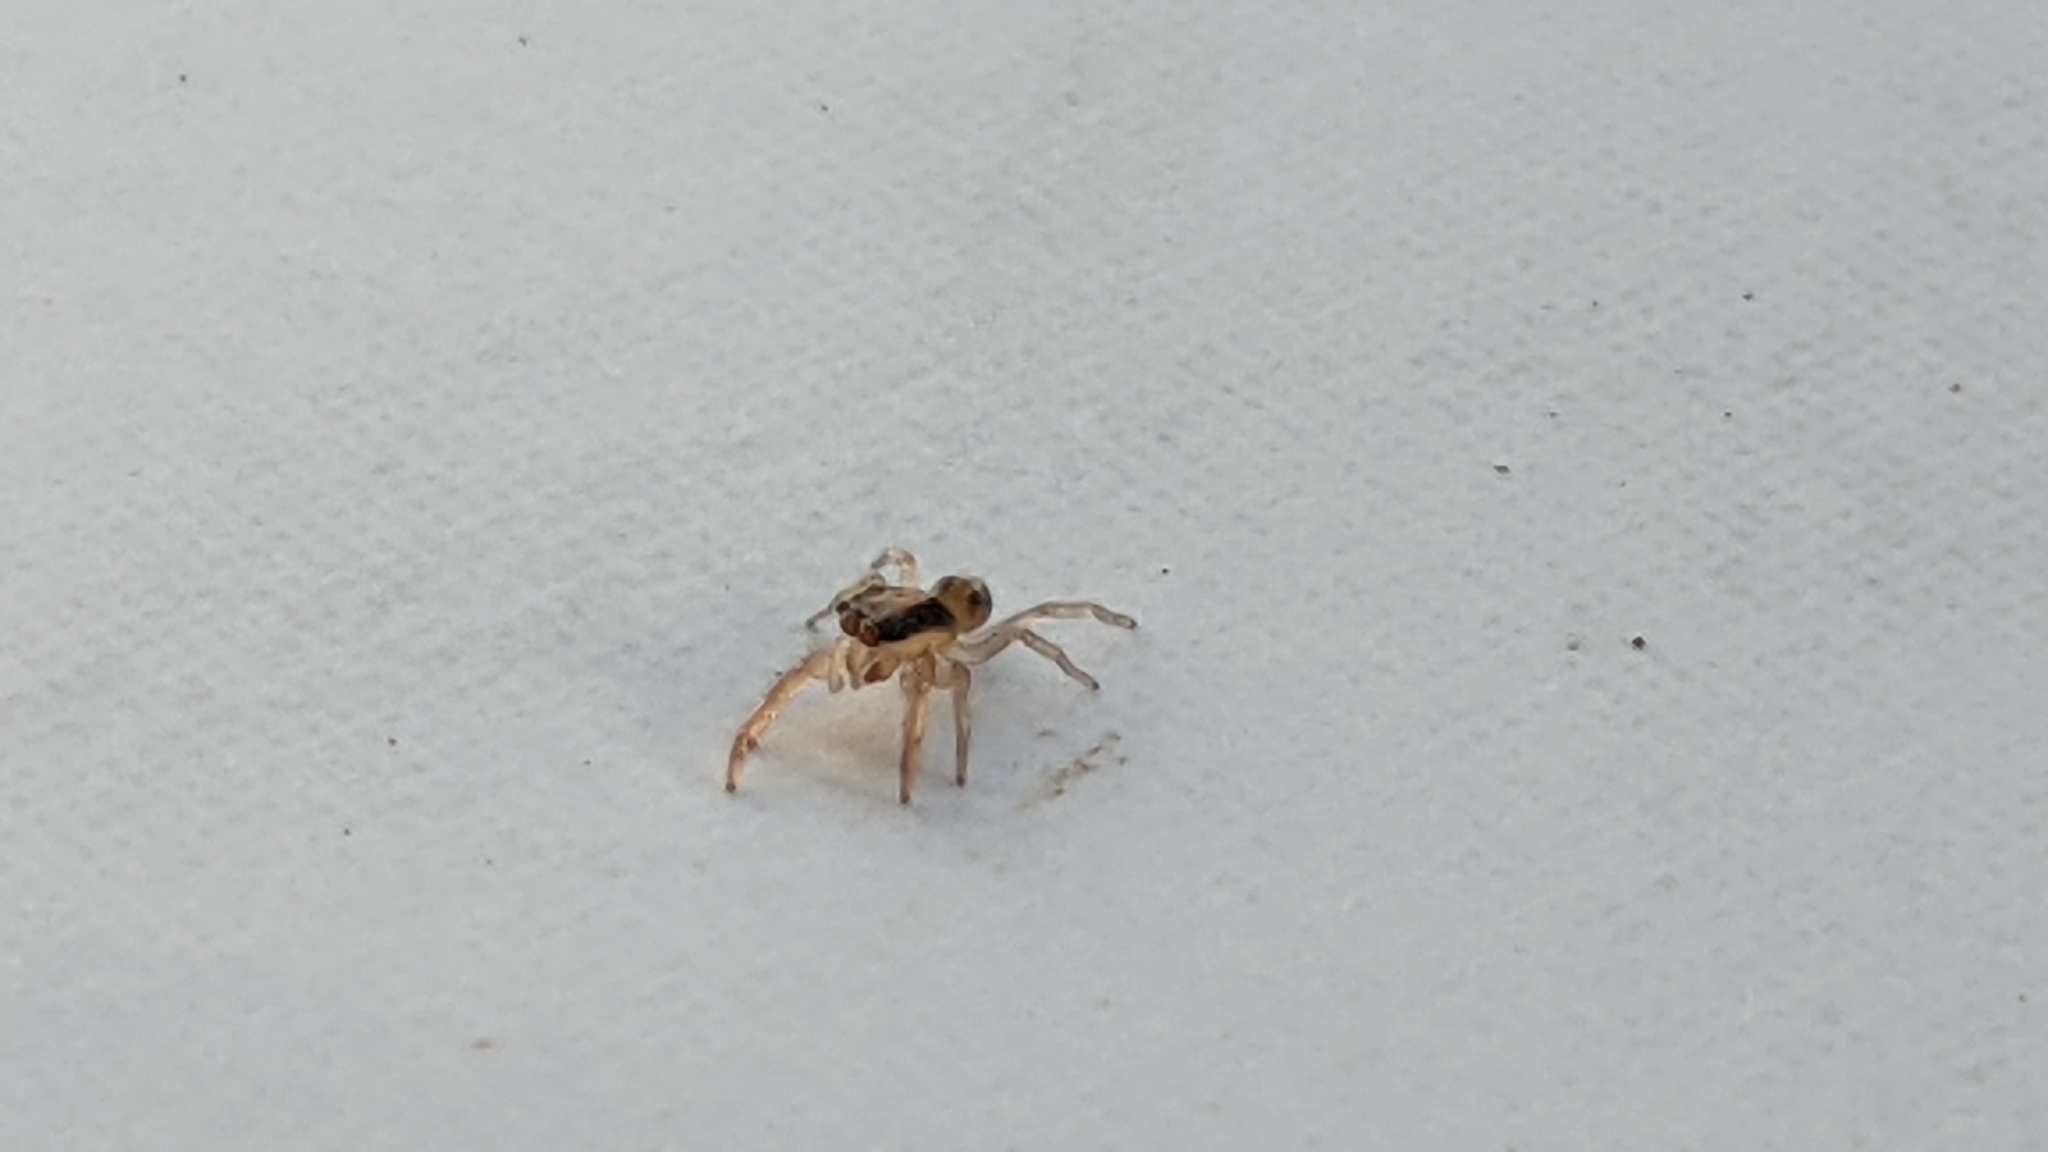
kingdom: Animalia
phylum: Arthropoda
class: Arachnida
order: Araneae
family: Salticidae
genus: Trite
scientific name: Trite planiceps
